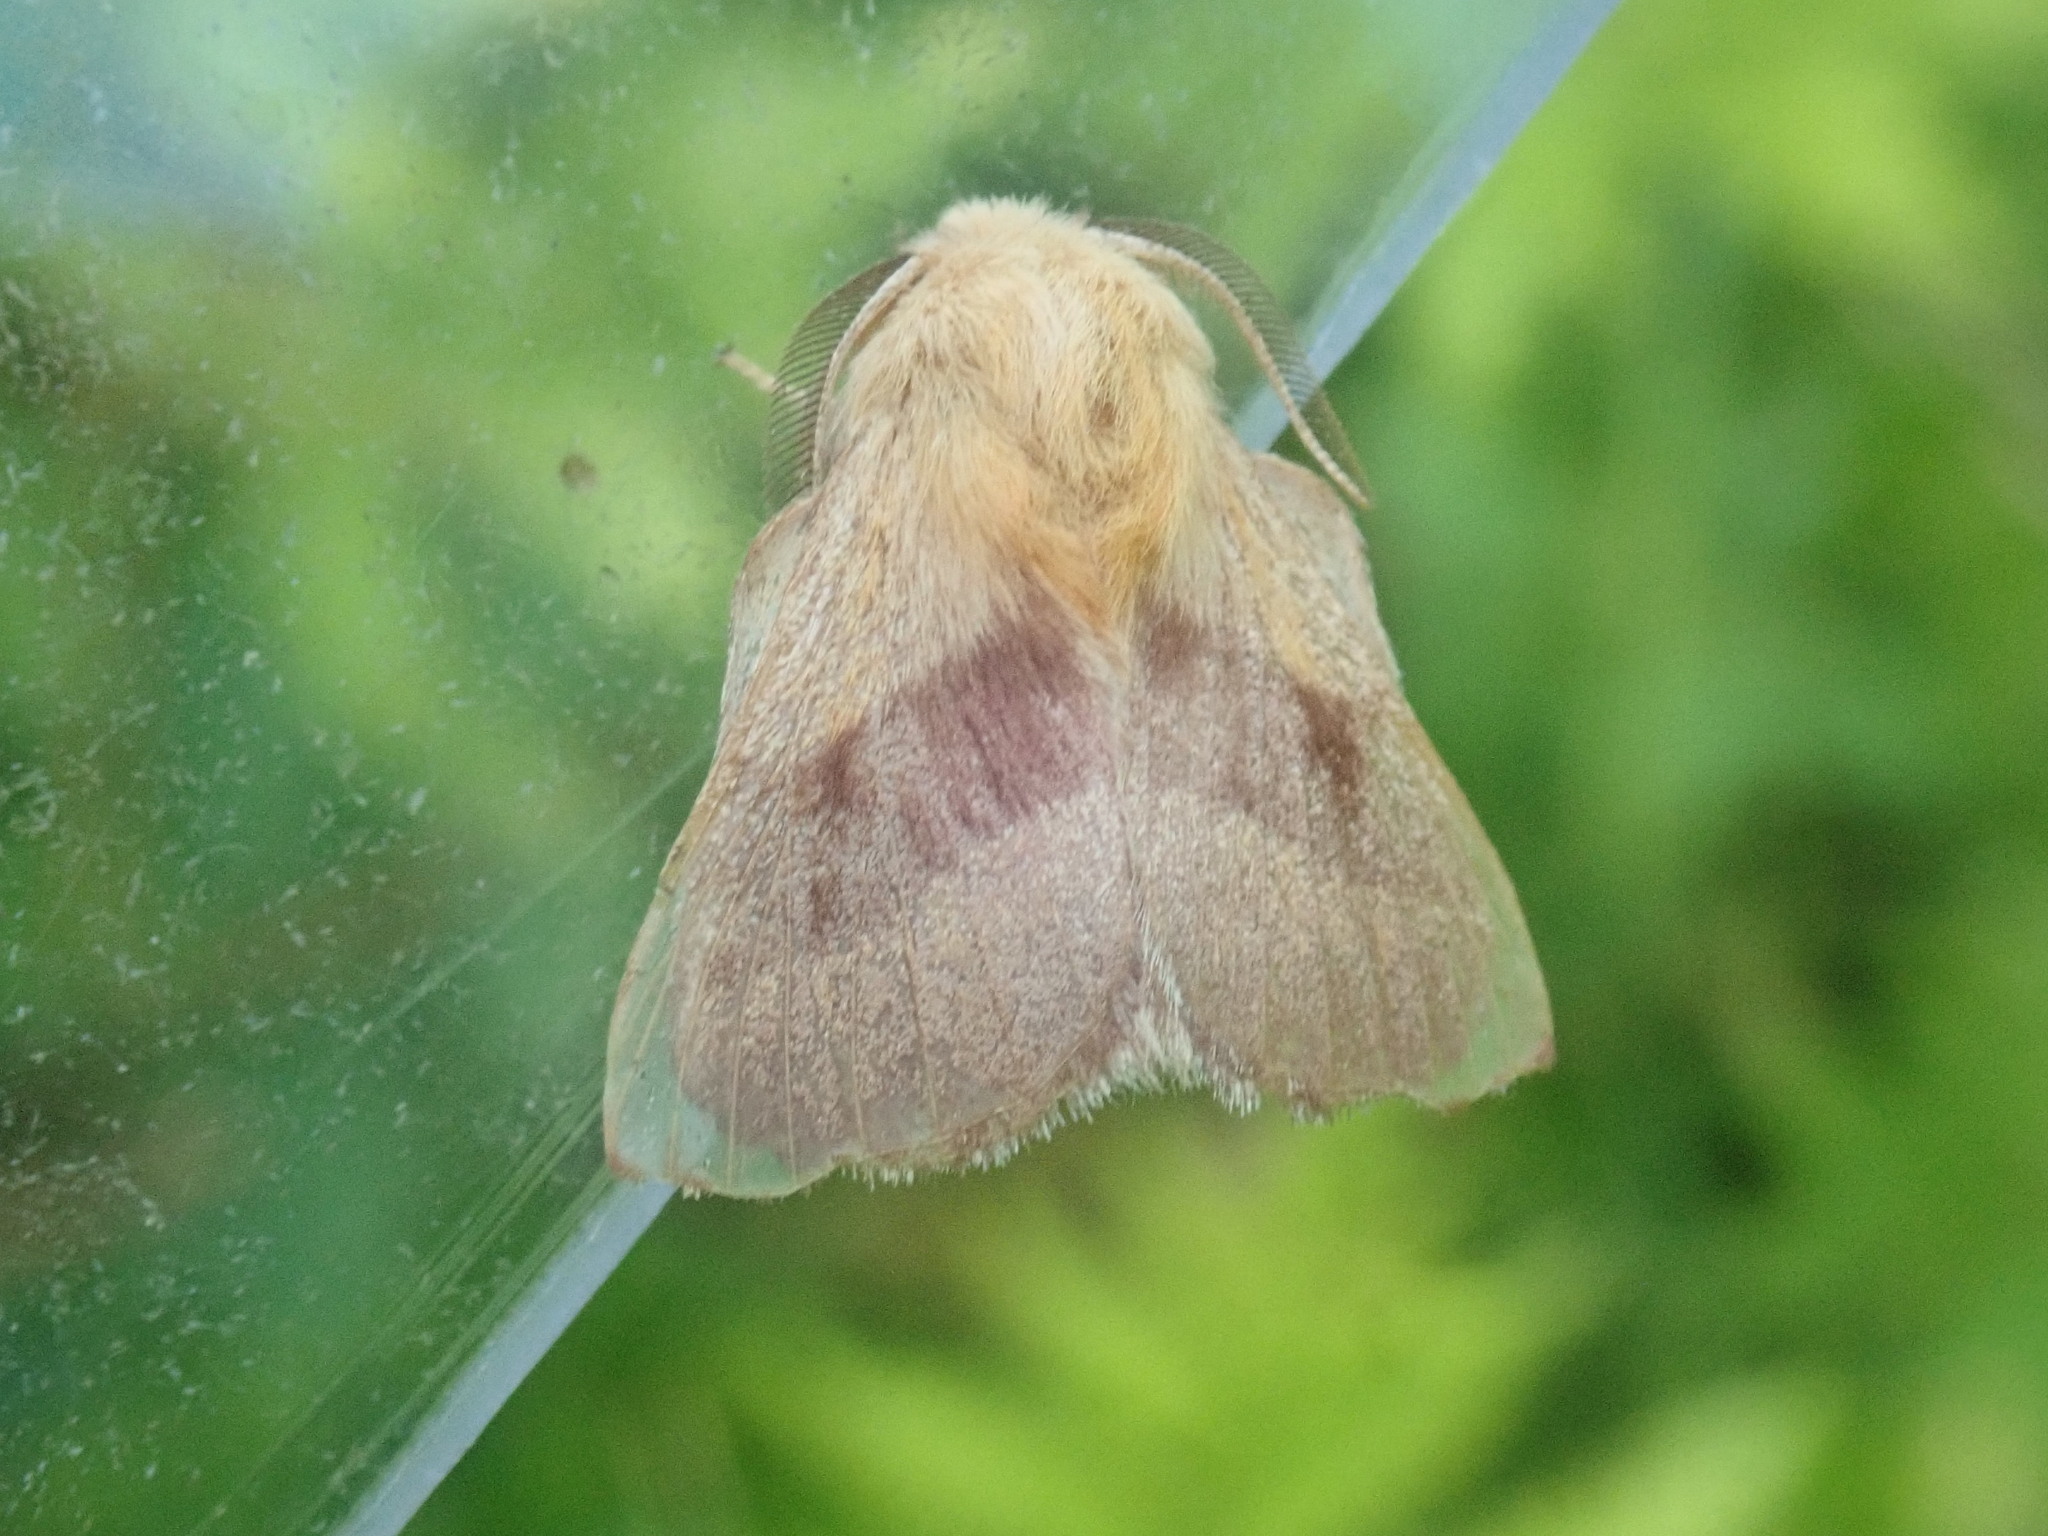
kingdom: Animalia
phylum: Arthropoda
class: Insecta
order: Lepidoptera
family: Lasiocampidae
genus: Malacosoma
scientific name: Malacosoma disstria
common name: Forest tent caterpillar
